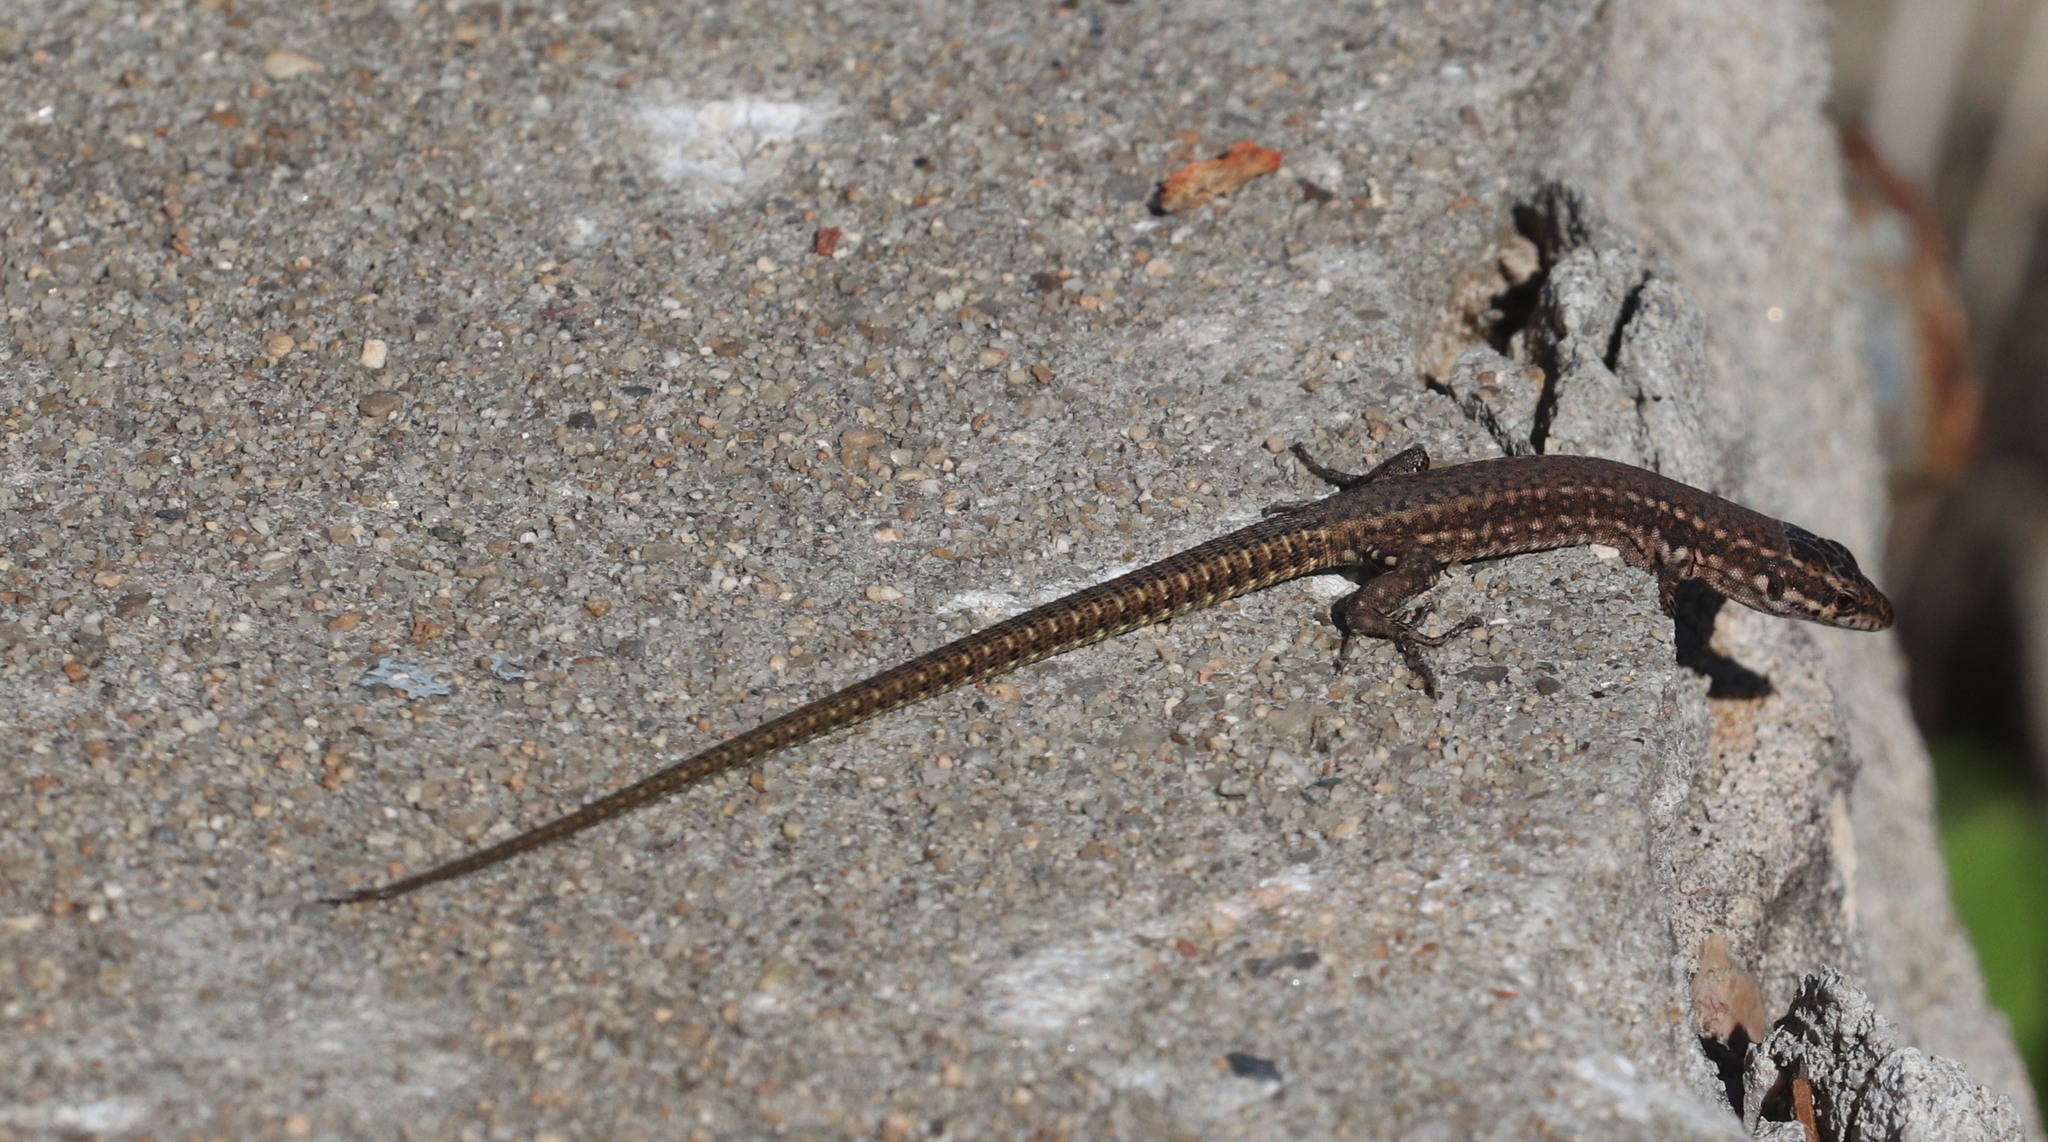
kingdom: Animalia
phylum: Chordata
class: Squamata
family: Lacertidae
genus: Podarcis
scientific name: Podarcis virescens
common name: Geniez’s wall lizard
